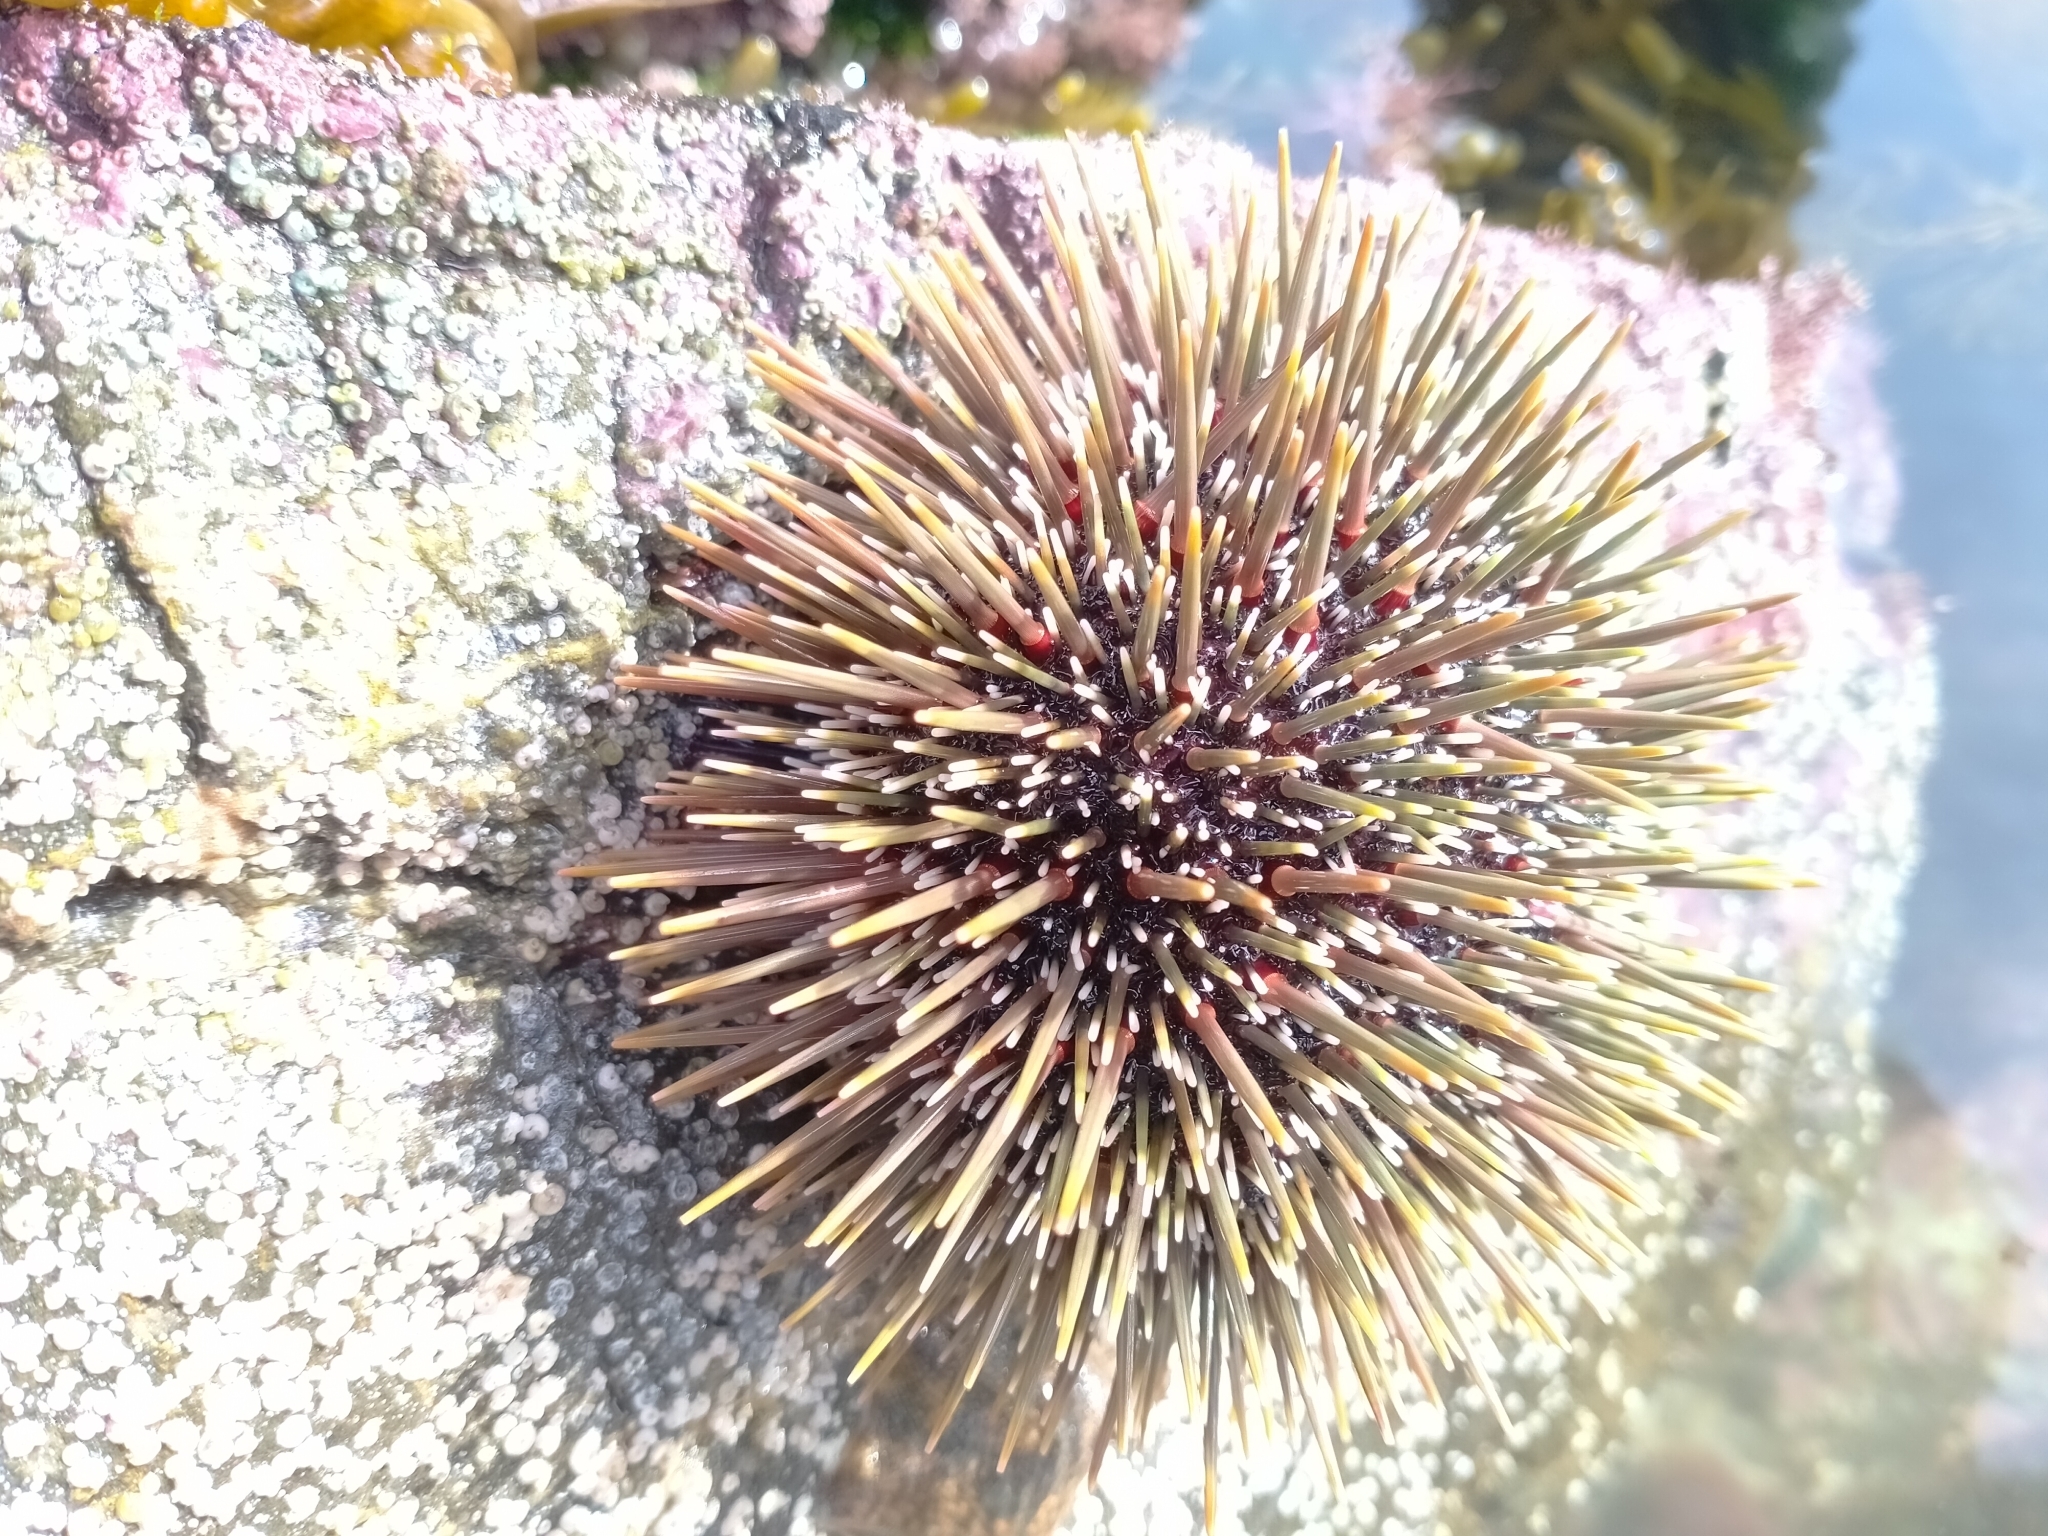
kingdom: Animalia
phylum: Echinodermata
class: Echinoidea
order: Camarodonta
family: Echinometridae
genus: Evechinus
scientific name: Evechinus chloroticus
